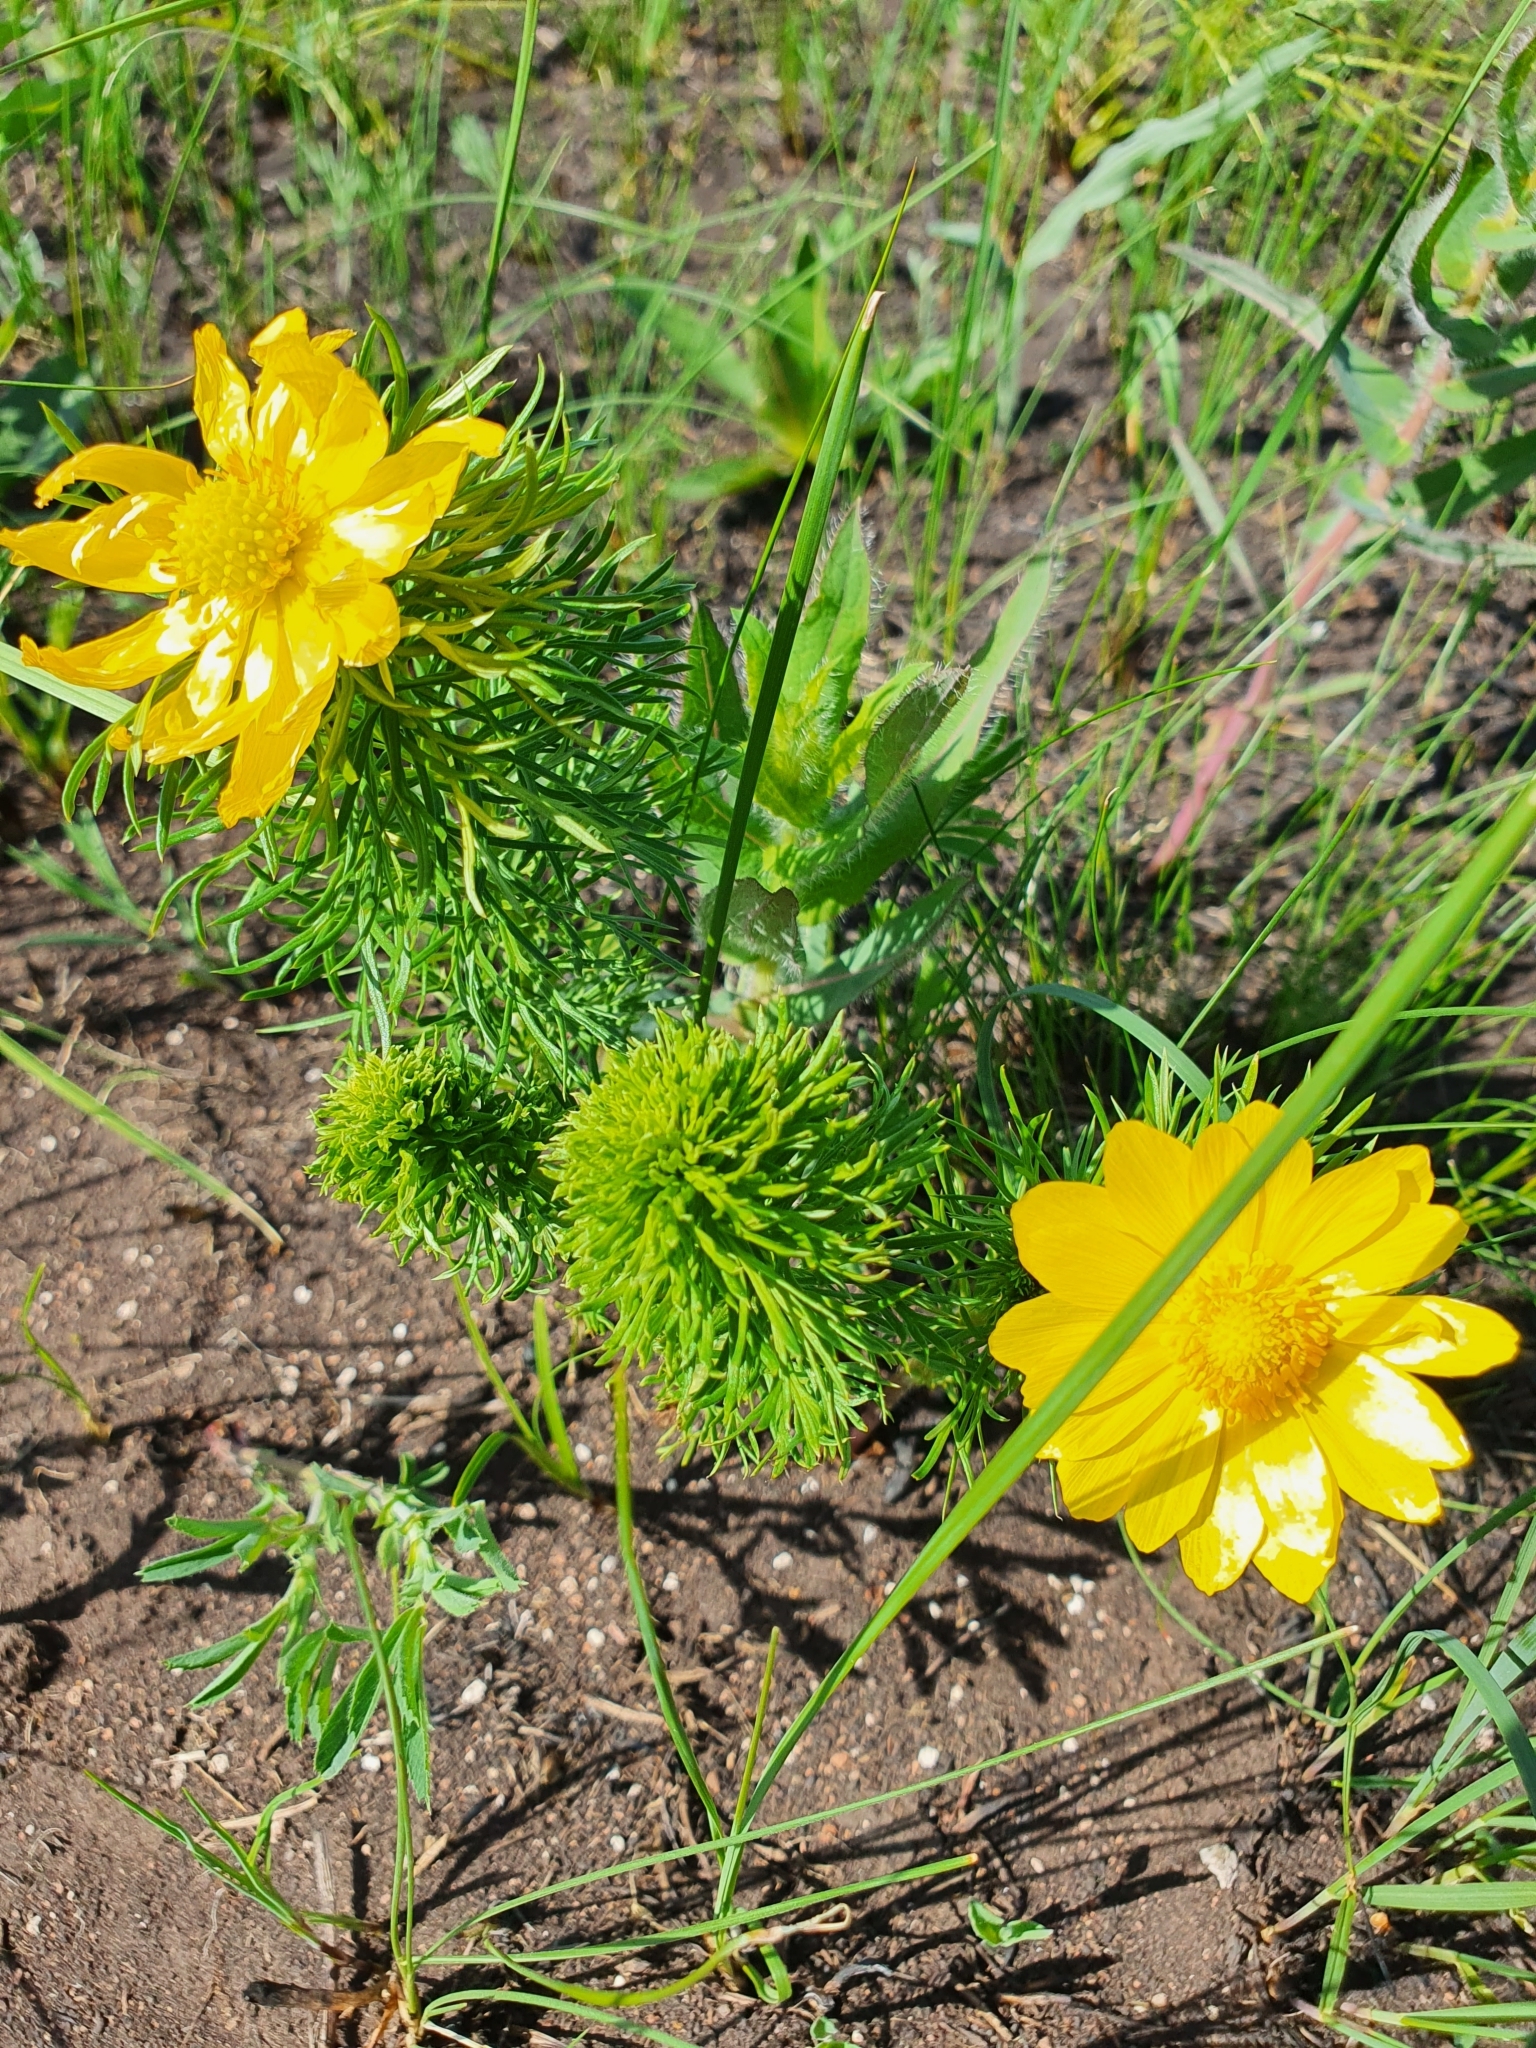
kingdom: Plantae
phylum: Tracheophyta
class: Magnoliopsida
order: Ranunculales
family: Ranunculaceae
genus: Adonis
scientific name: Adonis vernalis
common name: Yellow pheasants-eye
